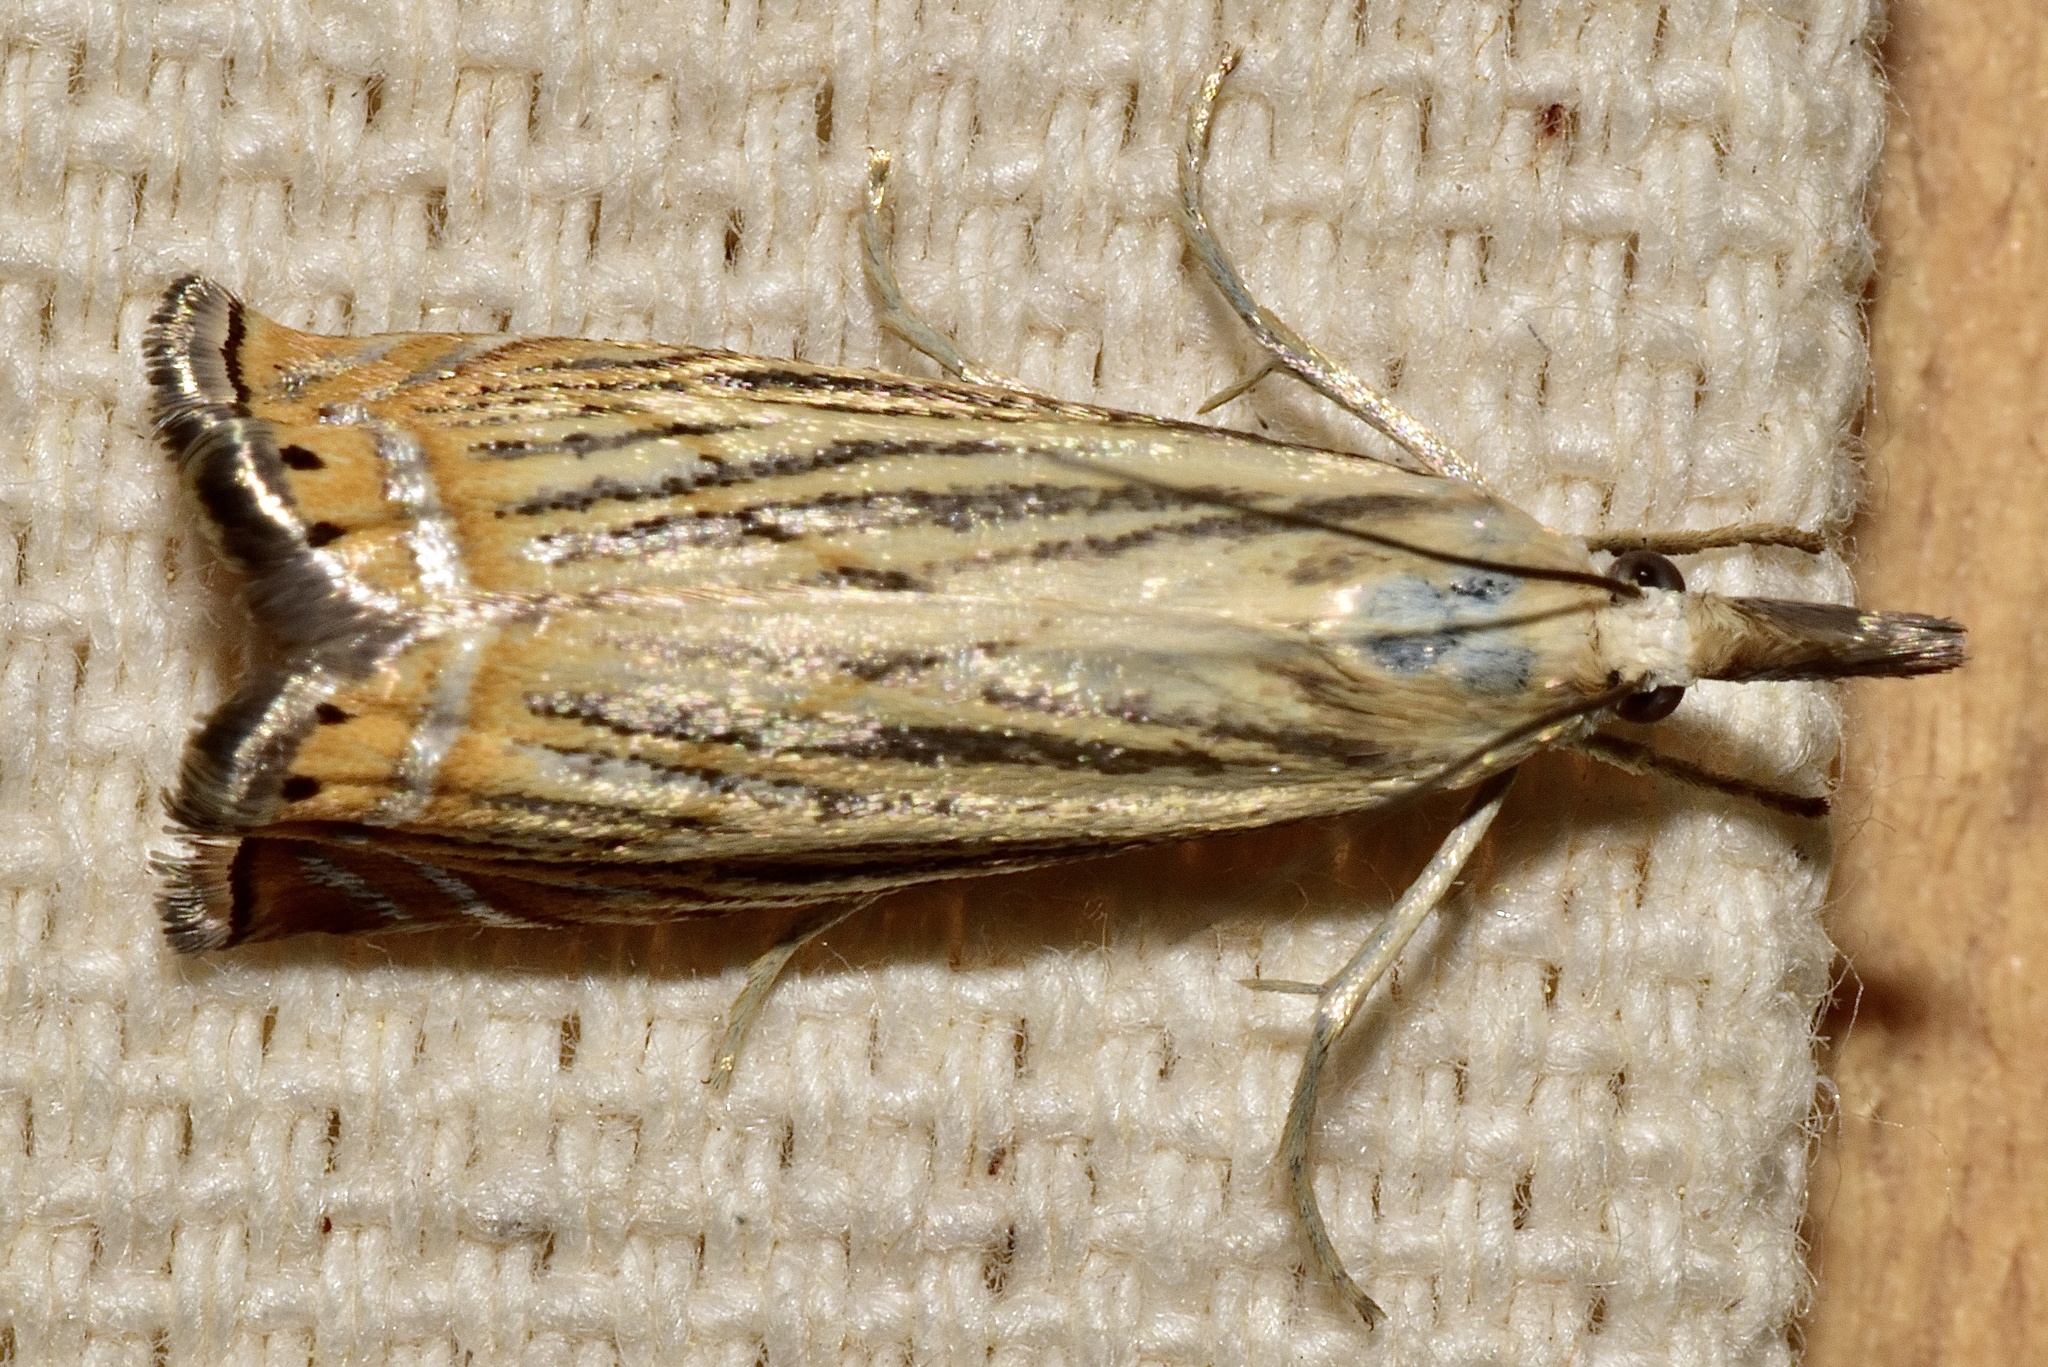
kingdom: Animalia
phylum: Arthropoda
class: Insecta
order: Lepidoptera
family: Crambidae
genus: Chrysoteuchia
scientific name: Chrysoteuchia topiarius
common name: Topiary grass-veneer
